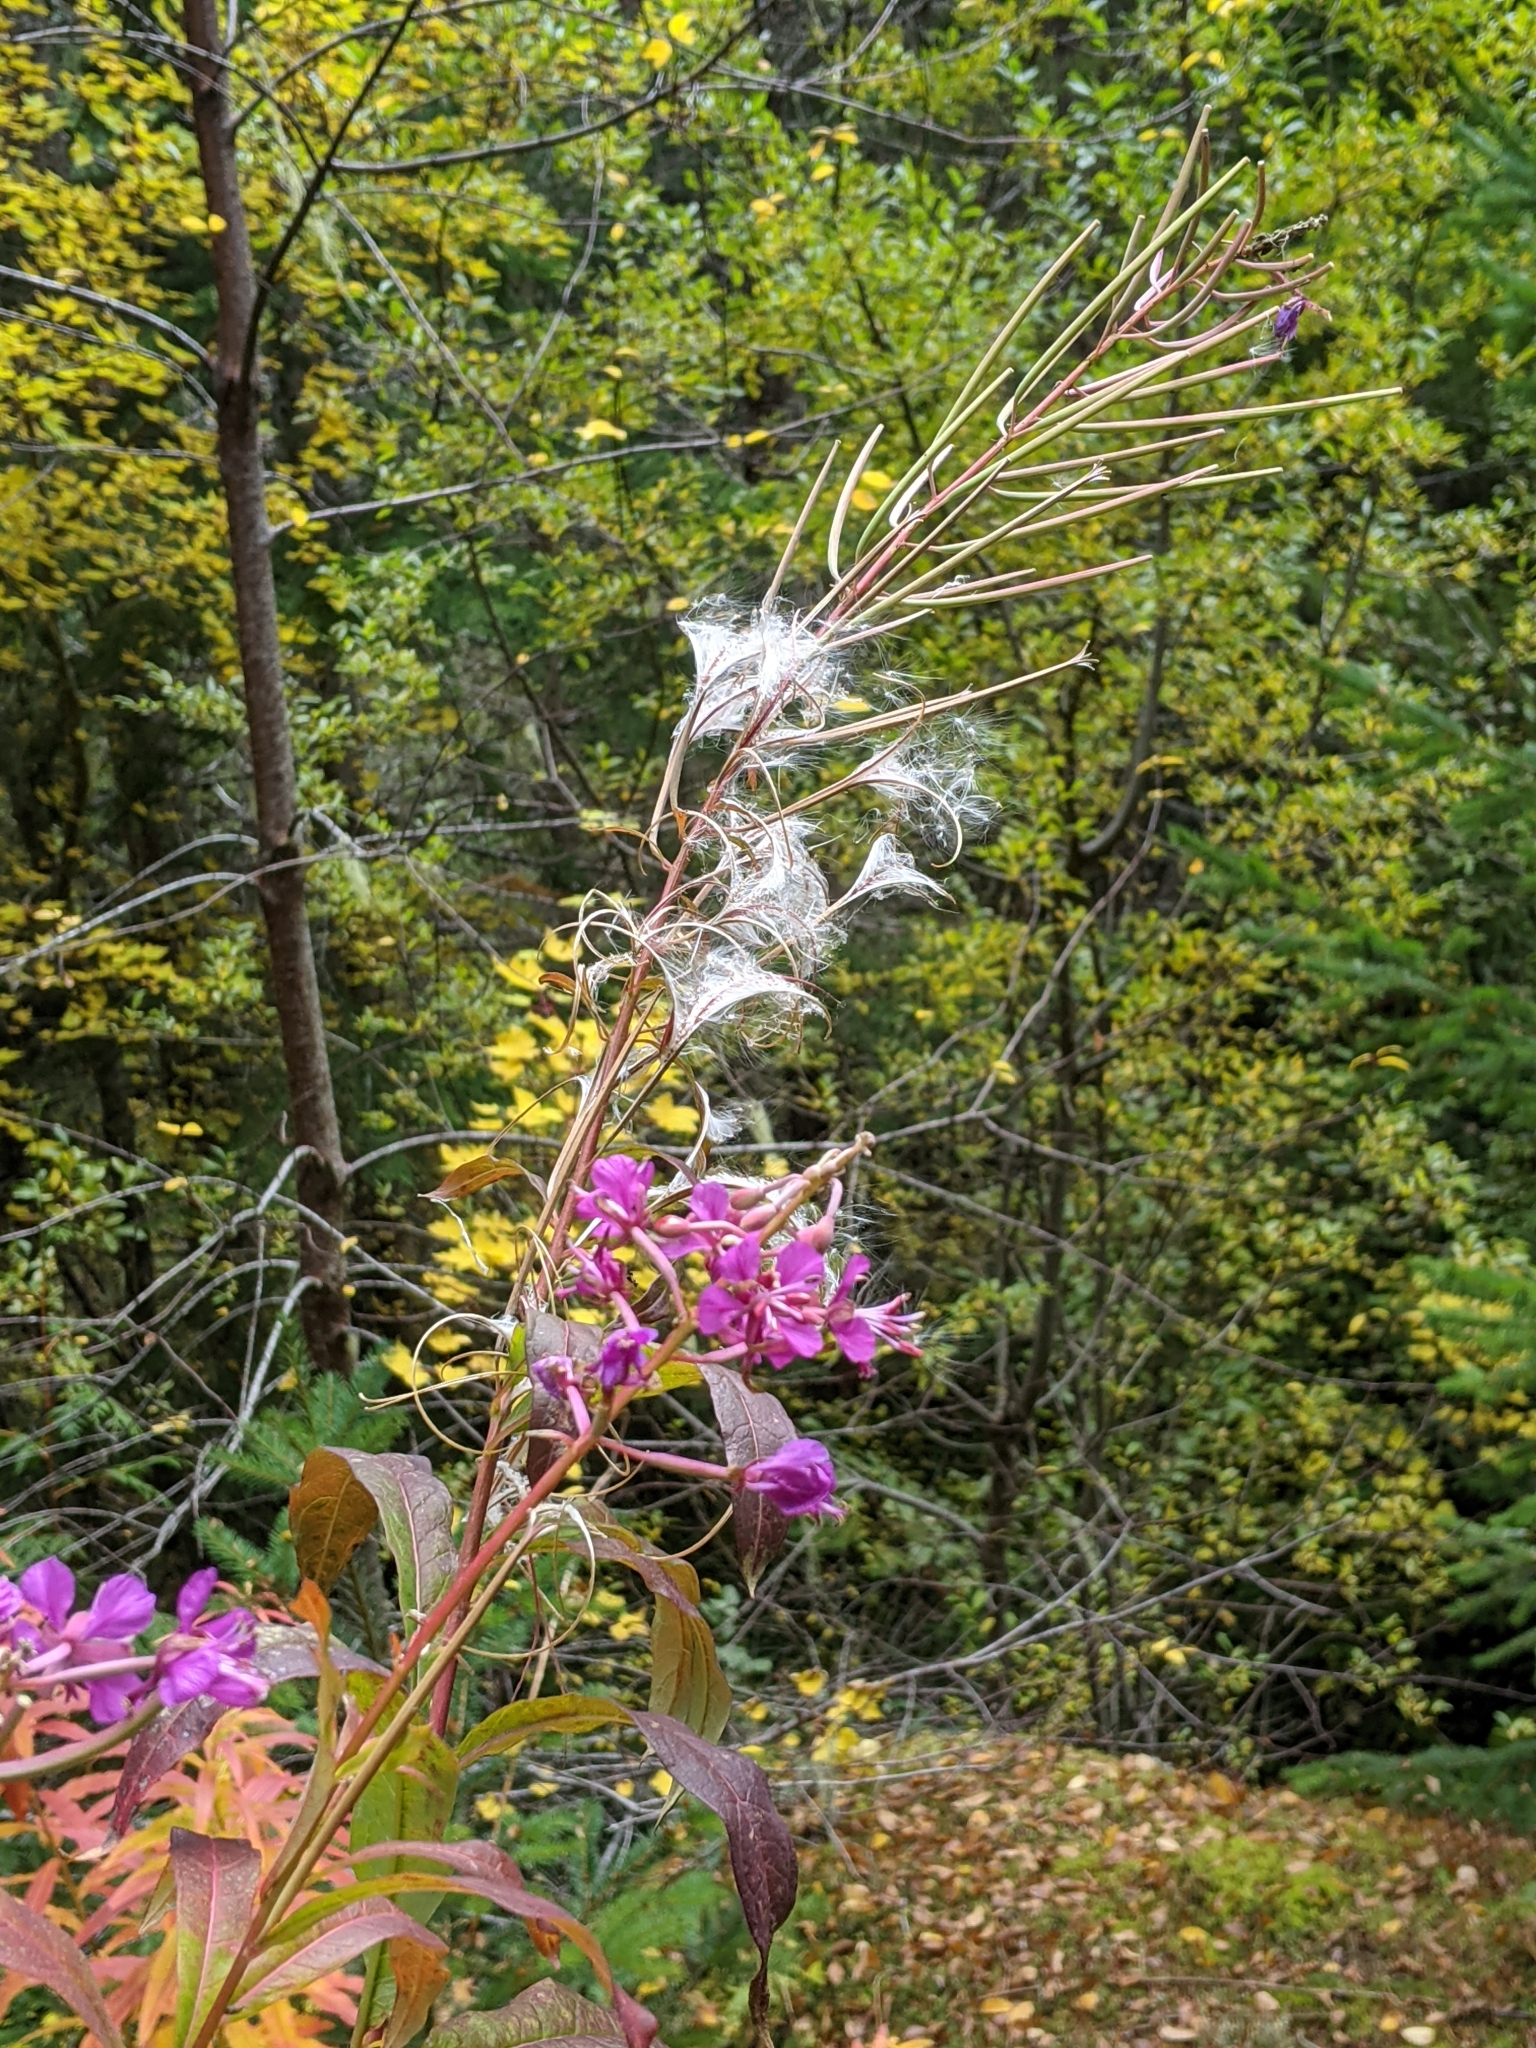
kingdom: Plantae
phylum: Tracheophyta
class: Magnoliopsida
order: Myrtales
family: Onagraceae
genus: Chamaenerion
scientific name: Chamaenerion angustifolium
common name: Fireweed
